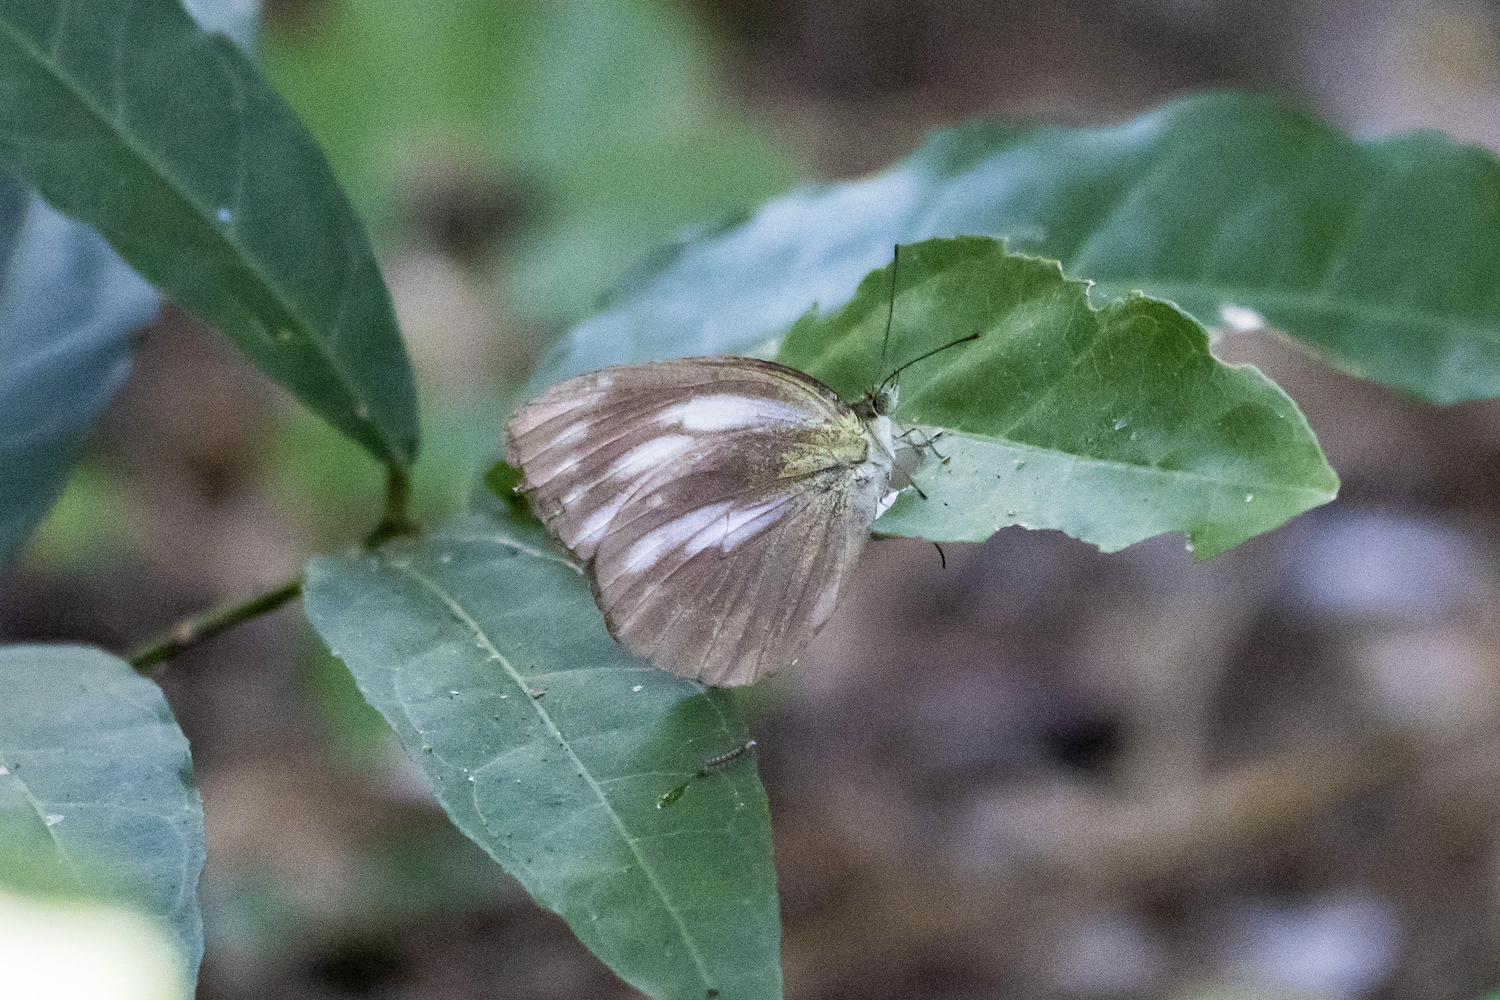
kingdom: Animalia
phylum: Arthropoda
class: Insecta
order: Lepidoptera
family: Pieridae
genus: Cepora
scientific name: Cepora nadina
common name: Lesser gull
